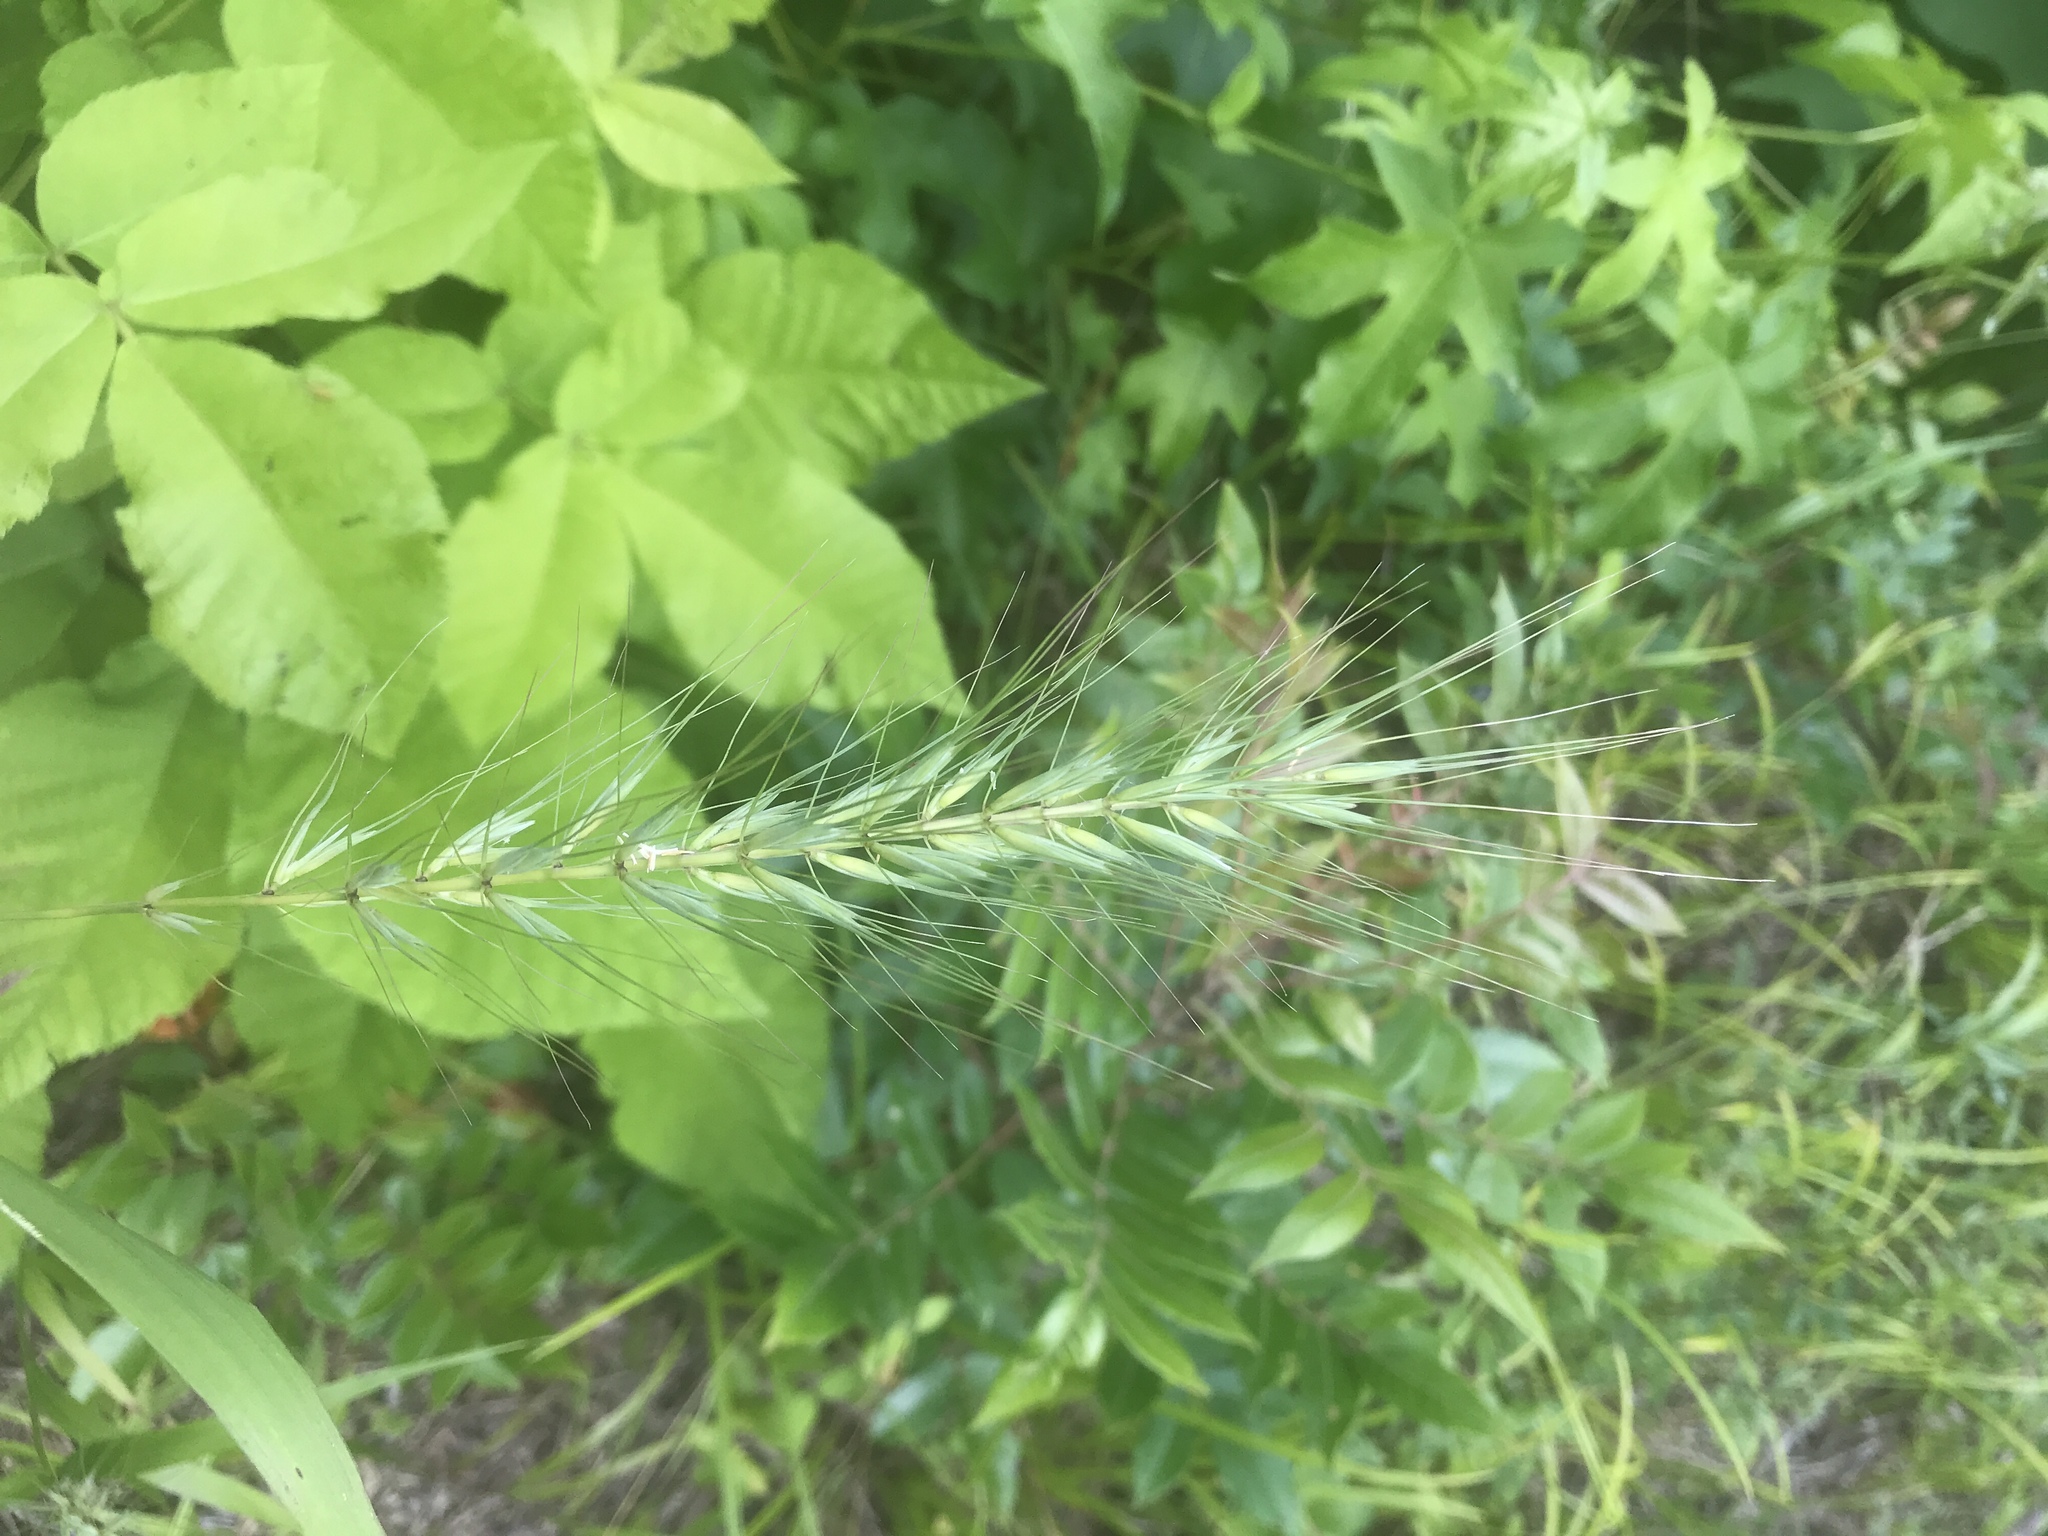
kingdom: Plantae
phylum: Tracheophyta
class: Liliopsida
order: Poales
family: Poaceae
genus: Elymus
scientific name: Elymus hystrix
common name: Bottlebrush grass
